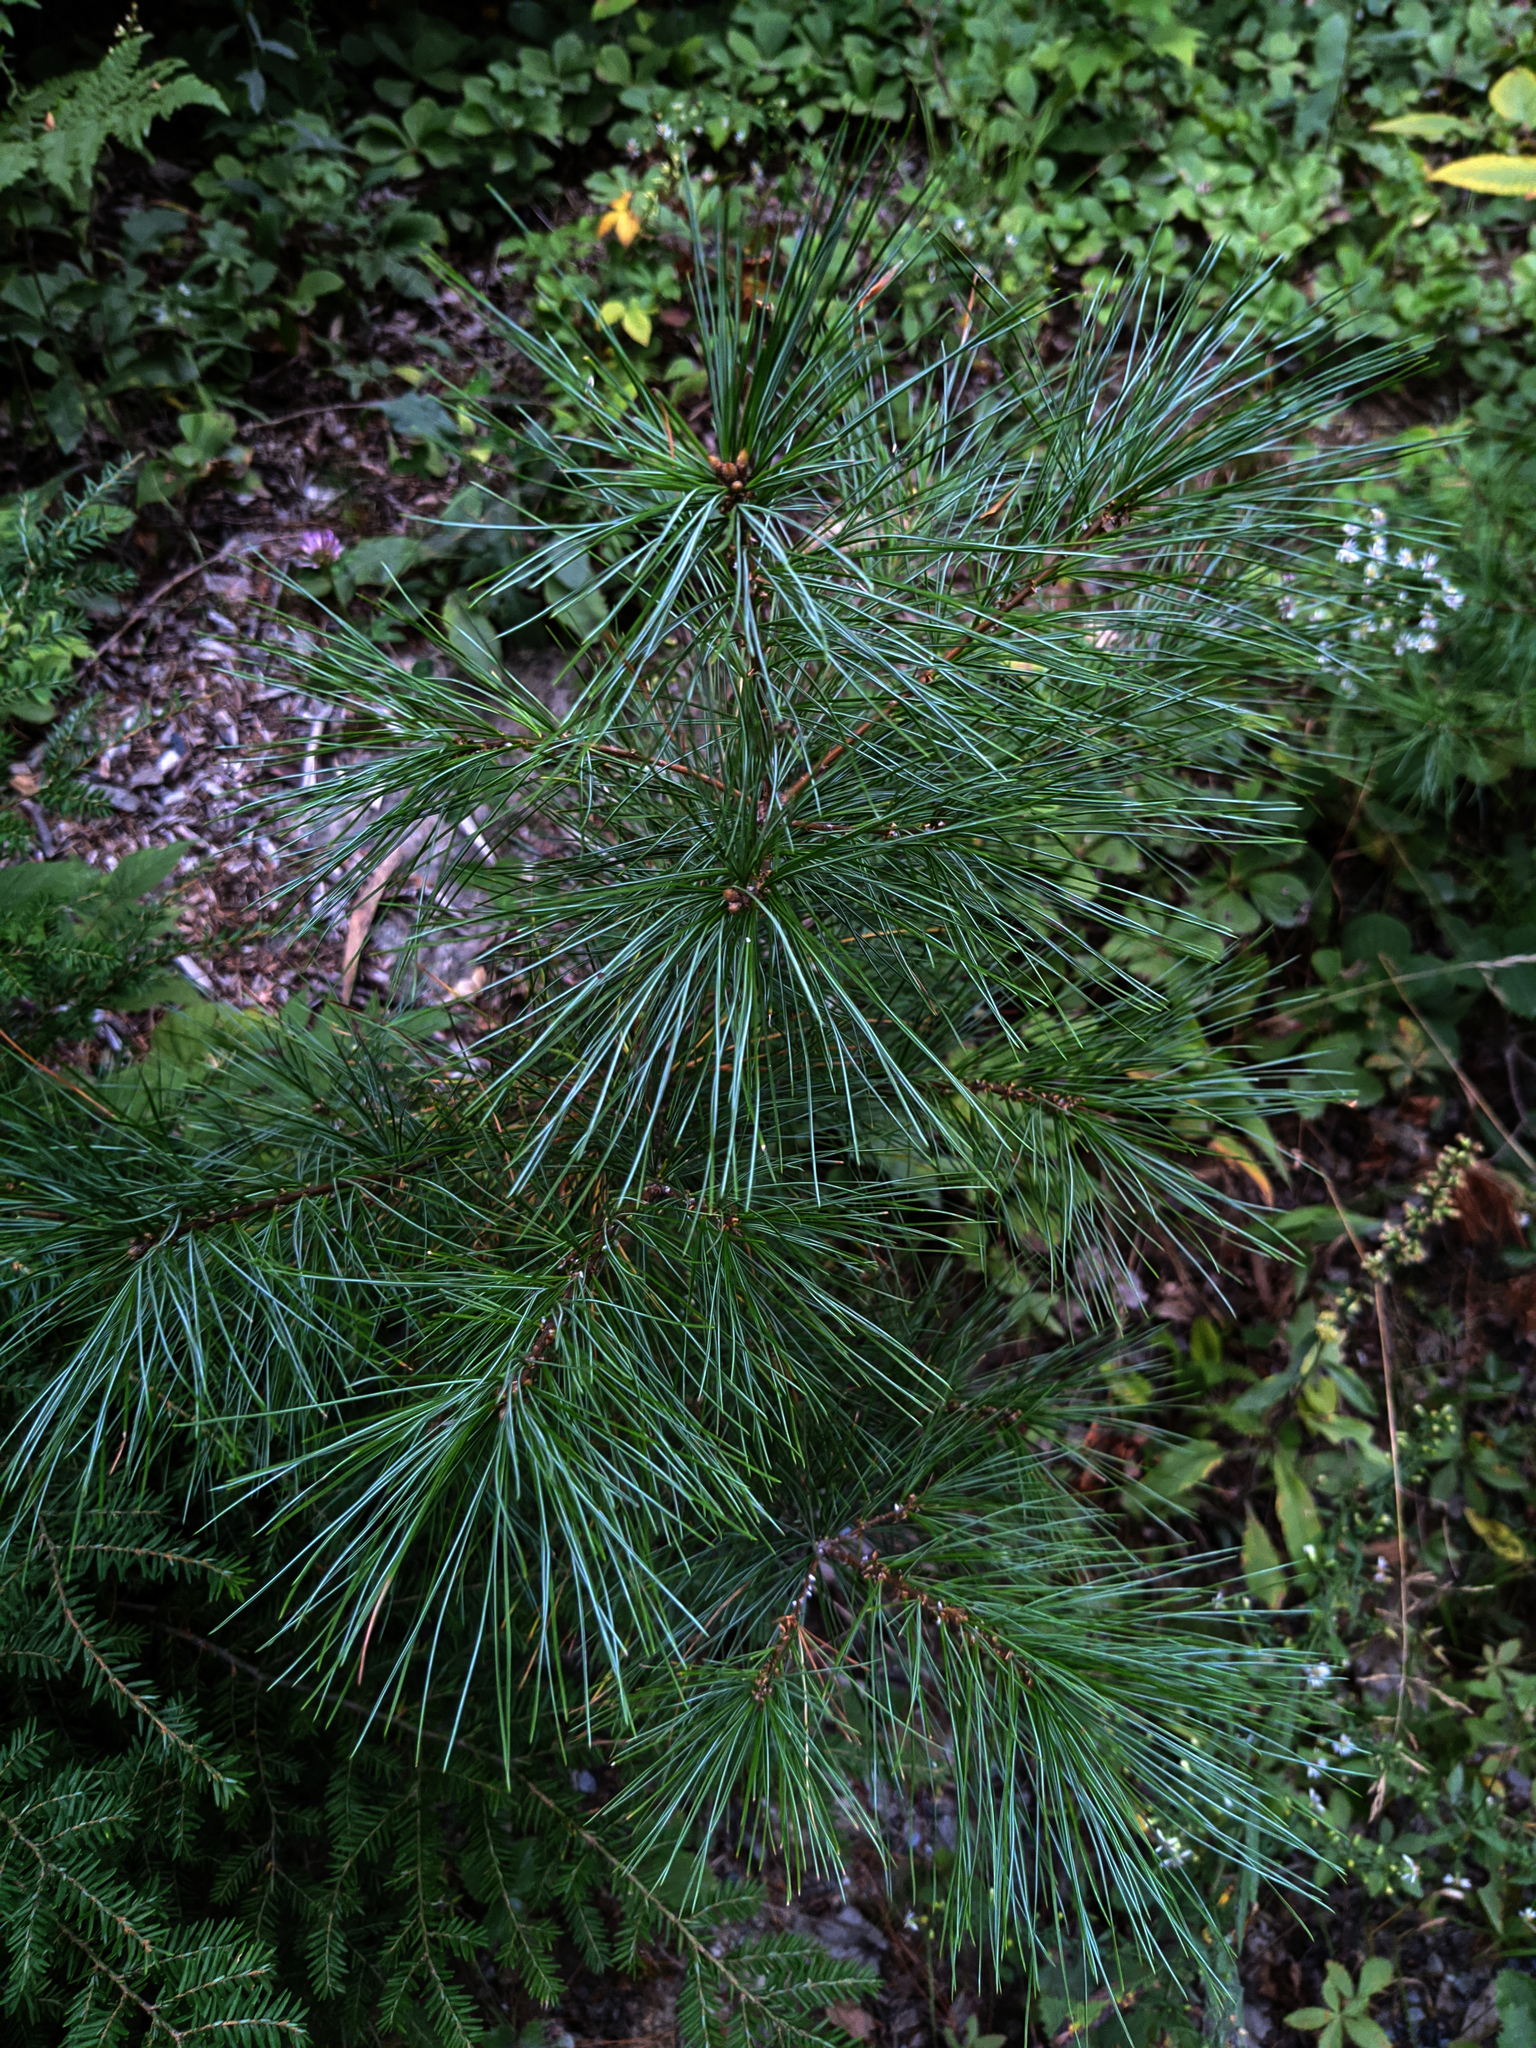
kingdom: Plantae
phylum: Tracheophyta
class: Pinopsida
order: Pinales
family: Pinaceae
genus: Pinus
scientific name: Pinus strobus
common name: Weymouth pine
